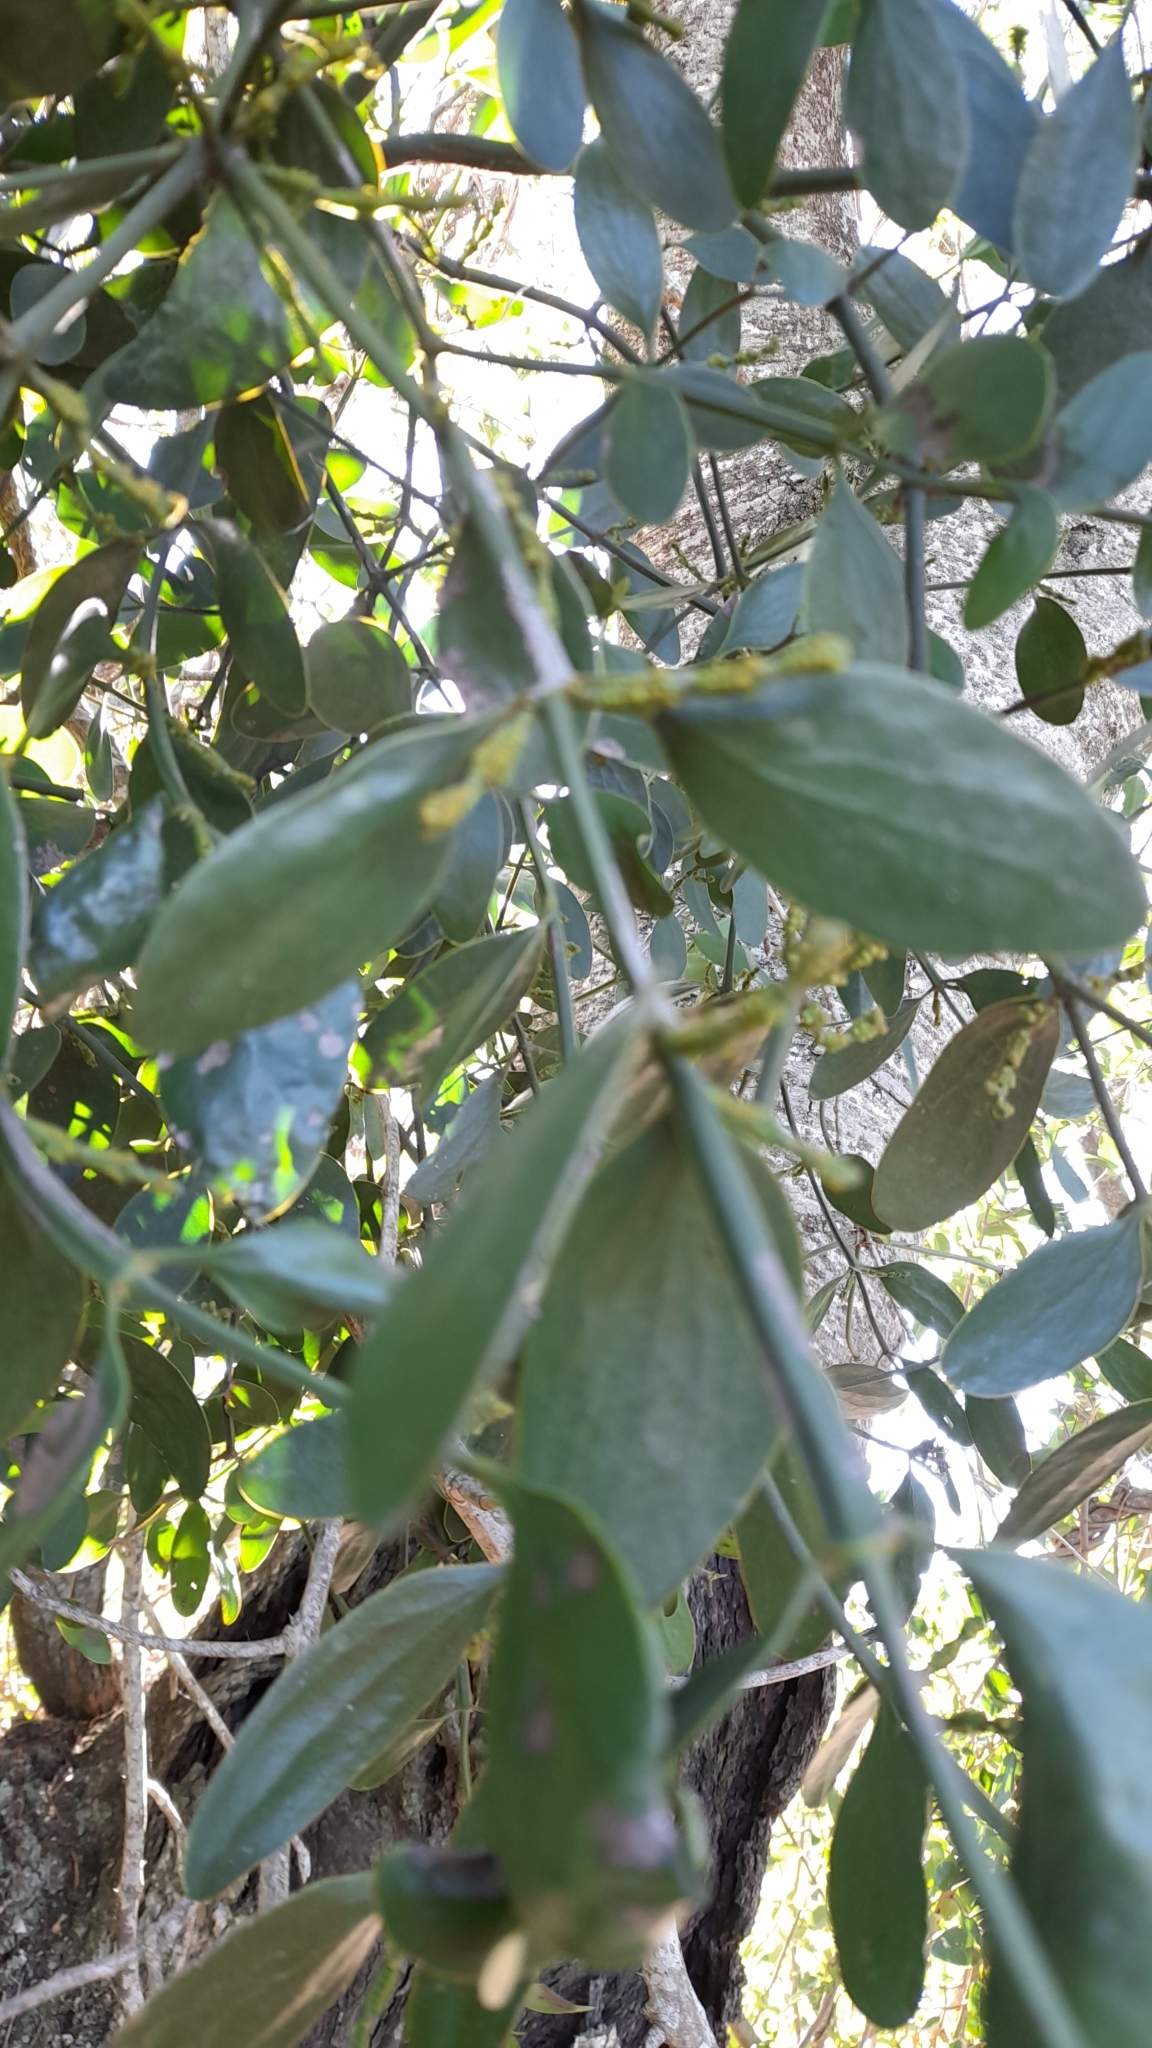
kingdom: Plantae
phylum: Tracheophyta
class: Magnoliopsida
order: Santalales
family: Viscaceae
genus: Phoradendron
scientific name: Phoradendron bathyoryctum
